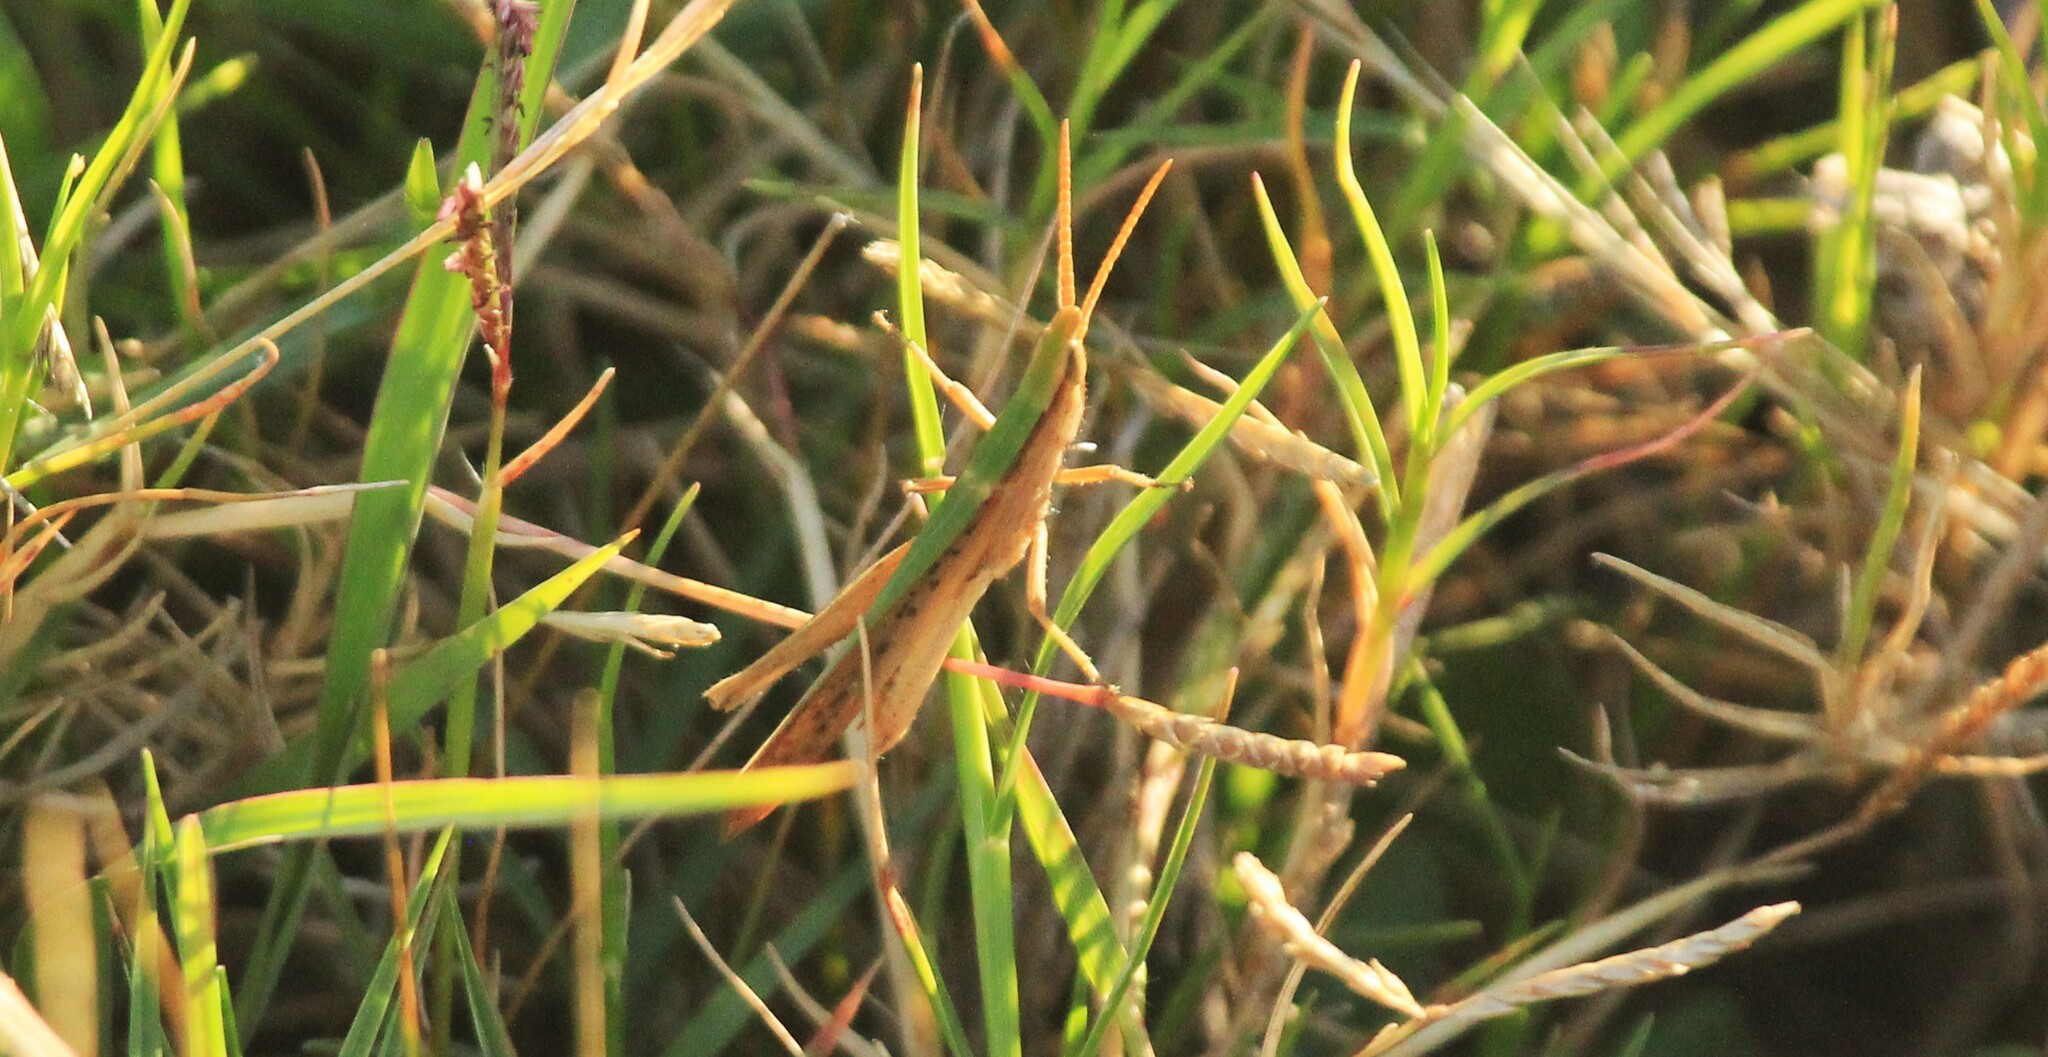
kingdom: Animalia
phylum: Arthropoda
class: Insecta
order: Orthoptera
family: Acrididae
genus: Allotruxalis
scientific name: Allotruxalis gracilis
